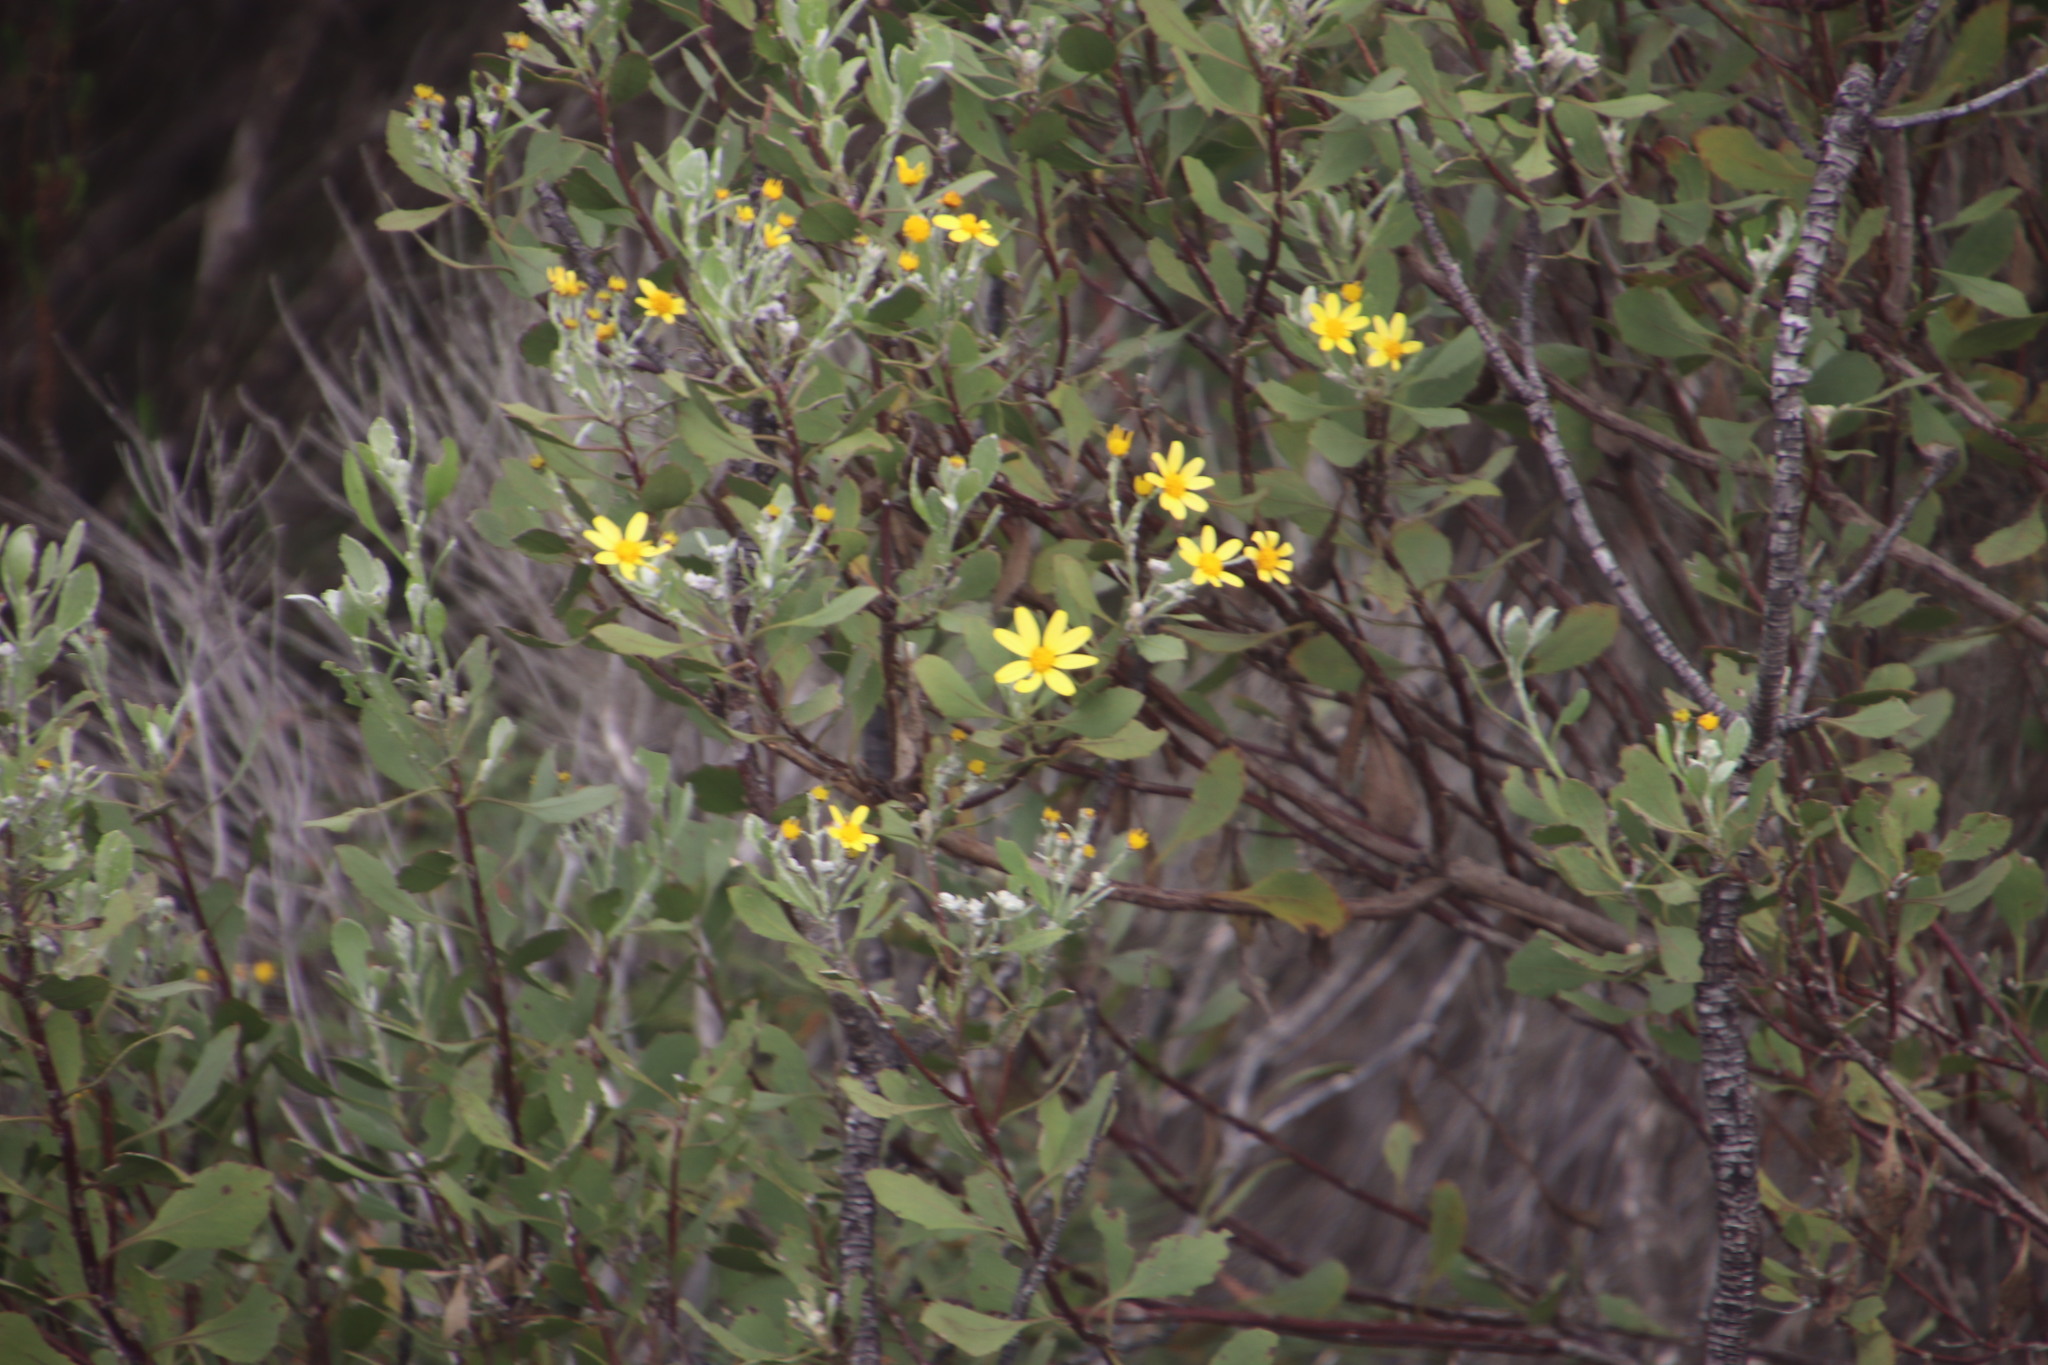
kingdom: Plantae
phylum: Tracheophyta
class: Magnoliopsida
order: Asterales
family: Asteraceae
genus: Osteospermum
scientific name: Osteospermum moniliferum
